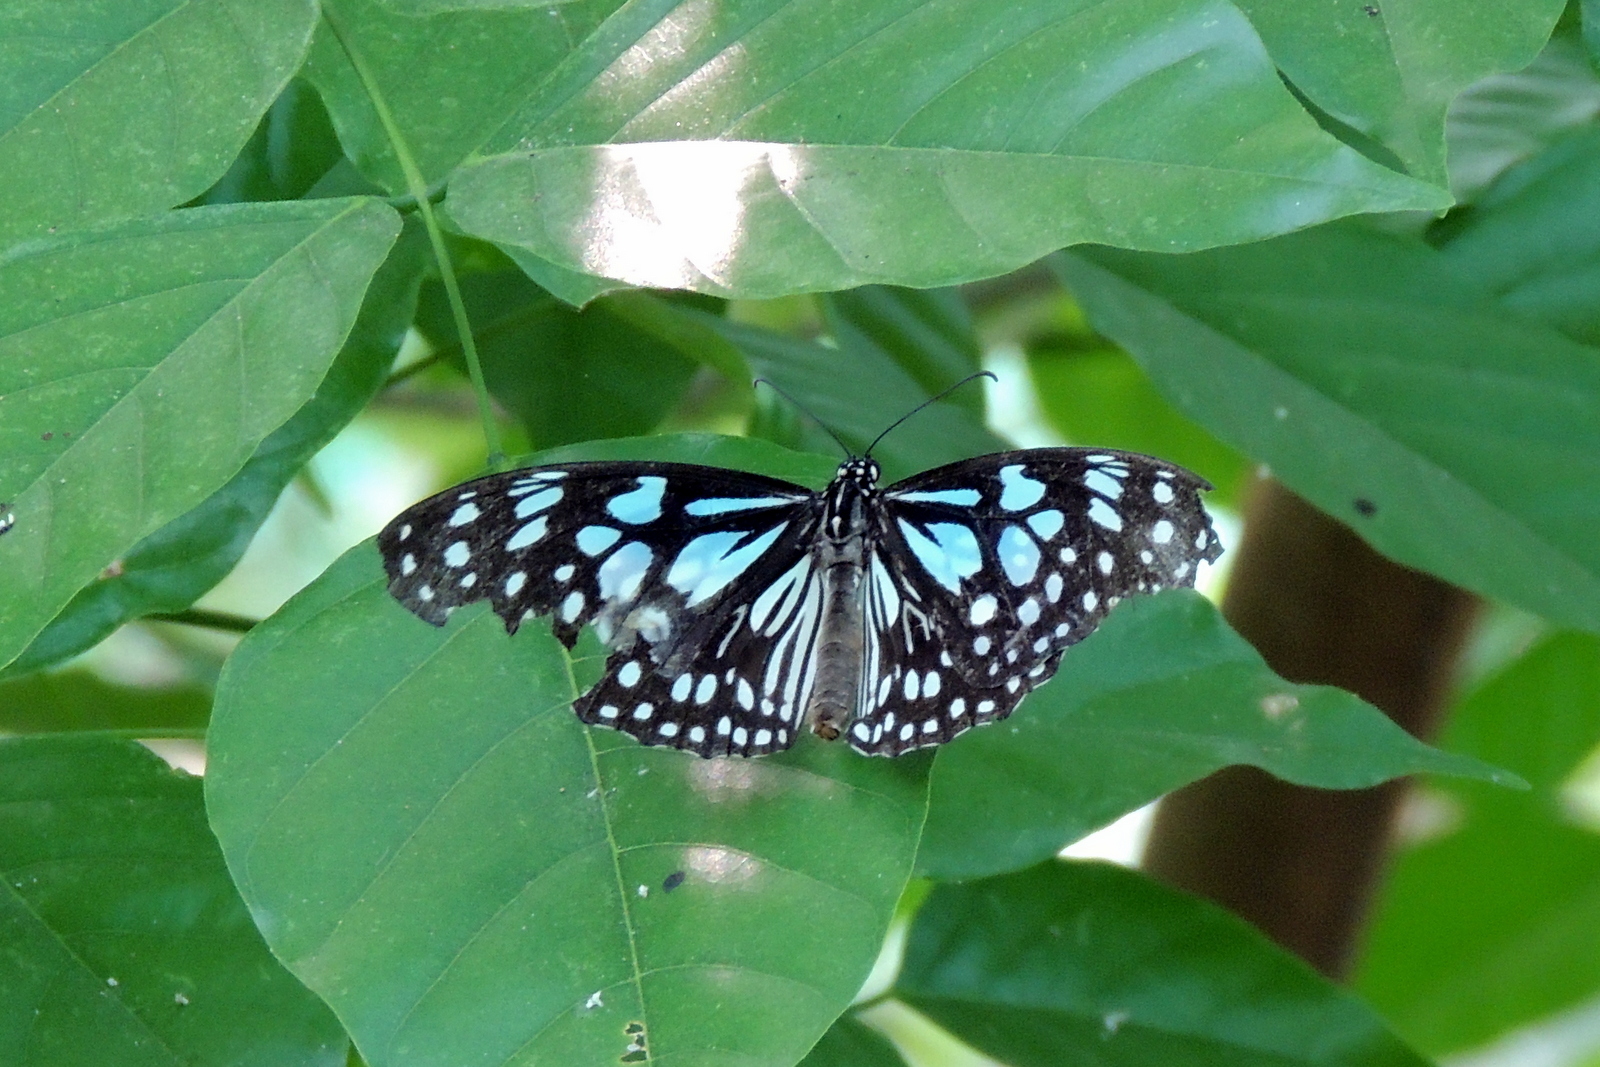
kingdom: Animalia
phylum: Arthropoda
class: Insecta
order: Lepidoptera
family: Nymphalidae
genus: Tirumala
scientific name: Tirumala limniace
